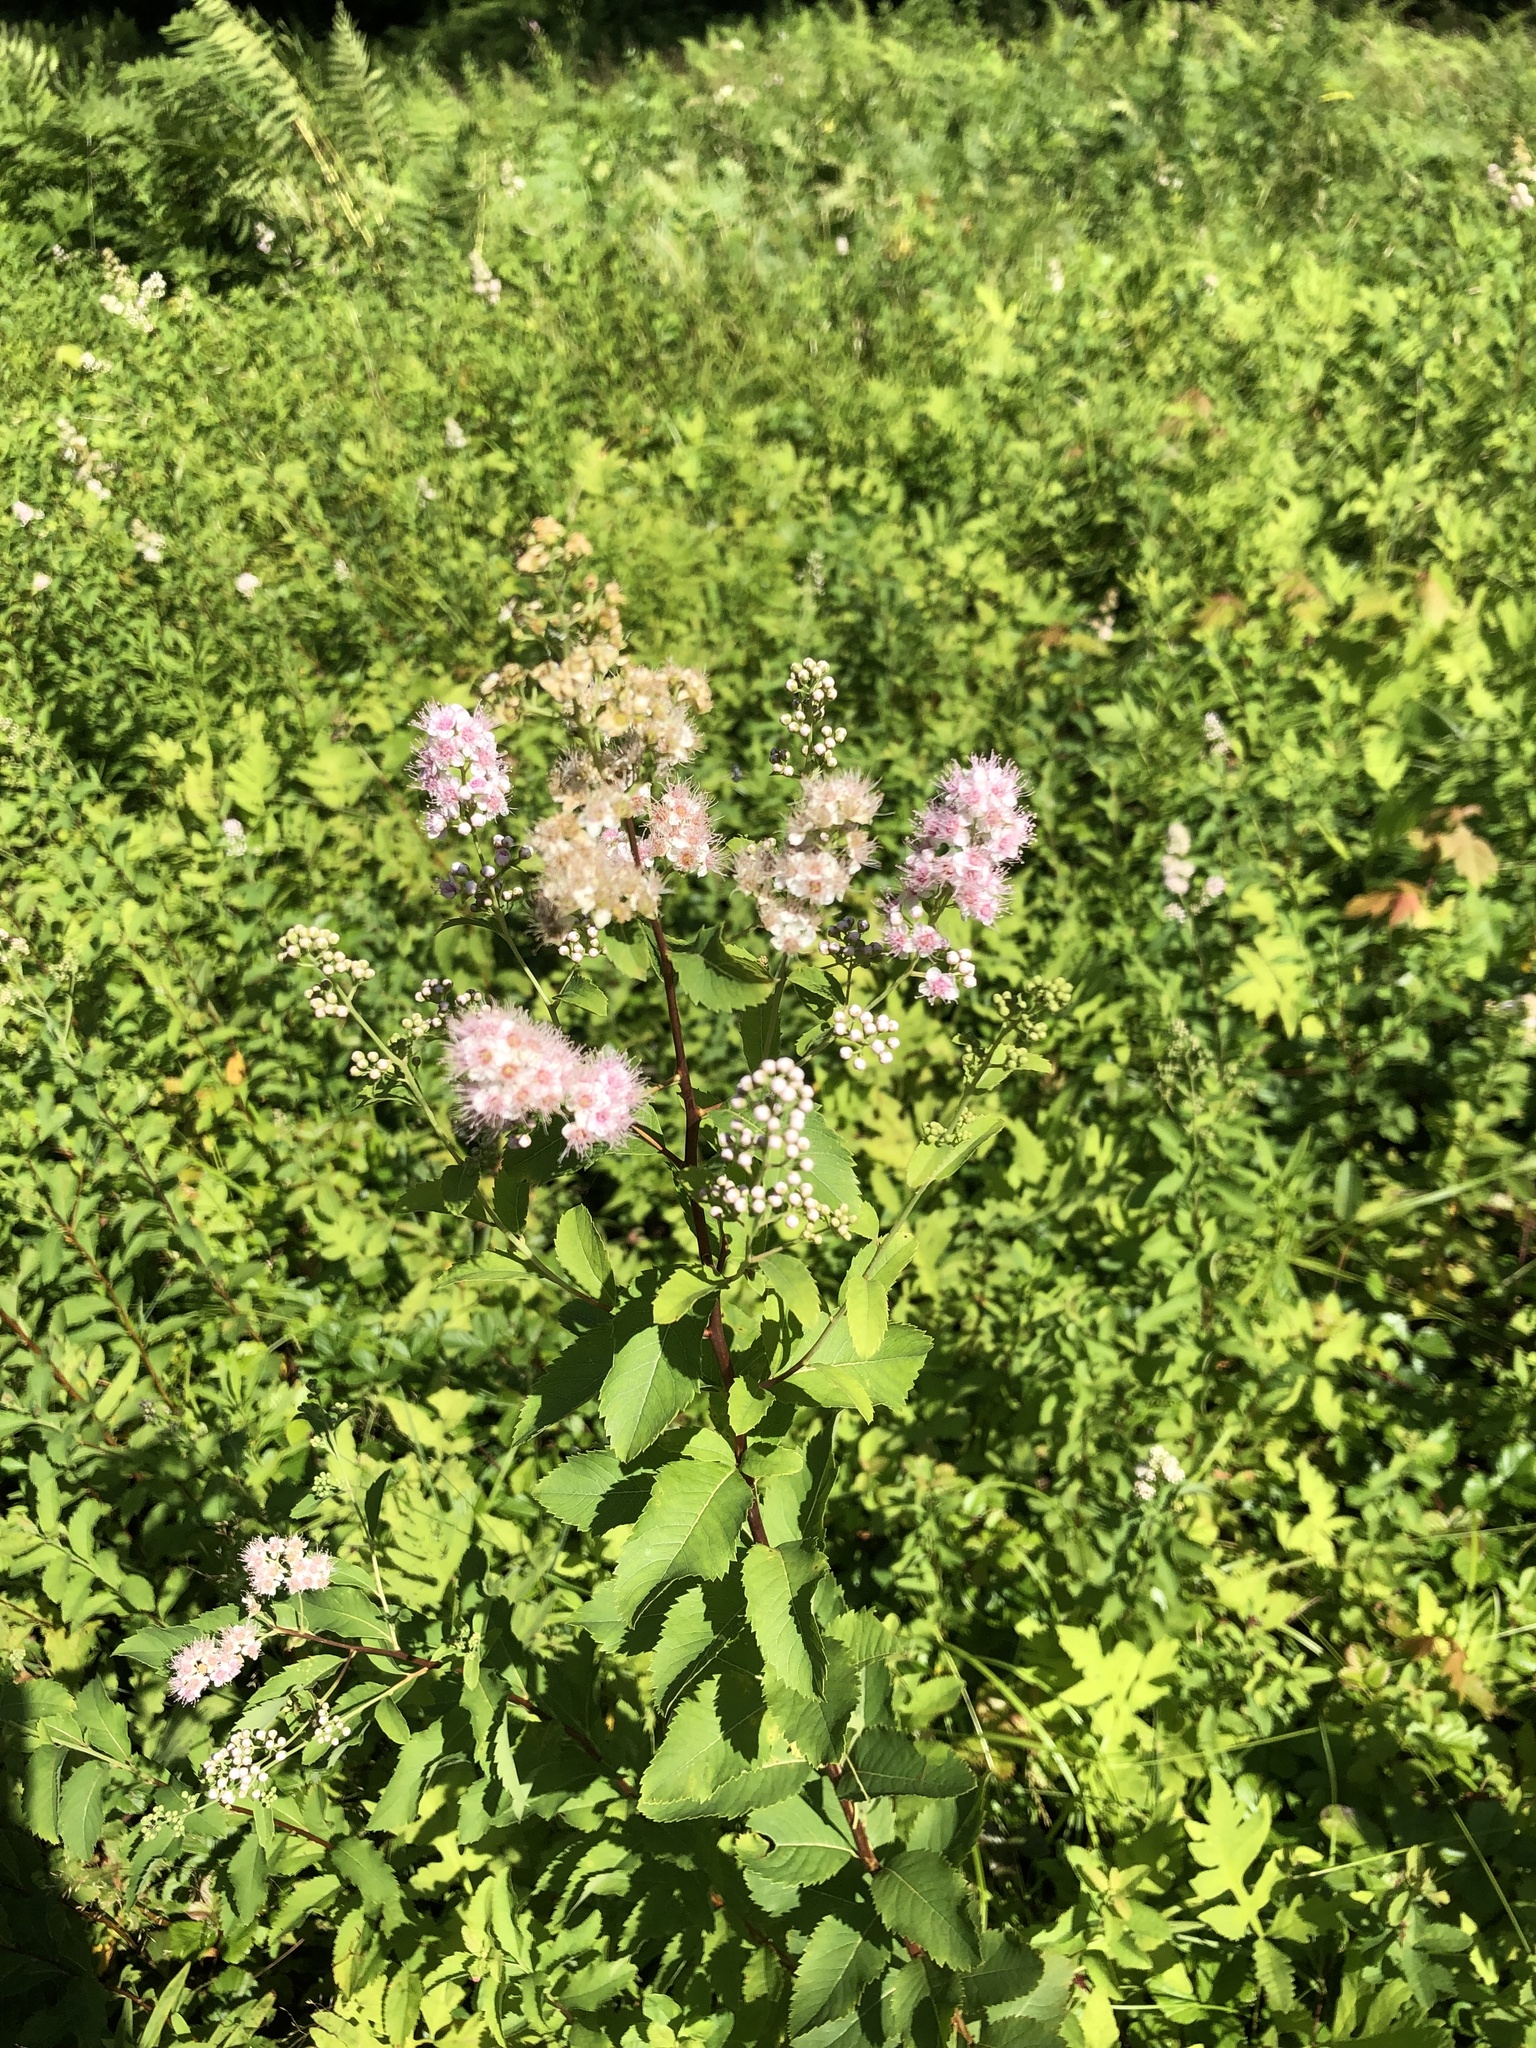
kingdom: Plantae
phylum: Tracheophyta
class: Magnoliopsida
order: Rosales
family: Rosaceae
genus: Spiraea
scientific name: Spiraea alba
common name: Pale bridewort
